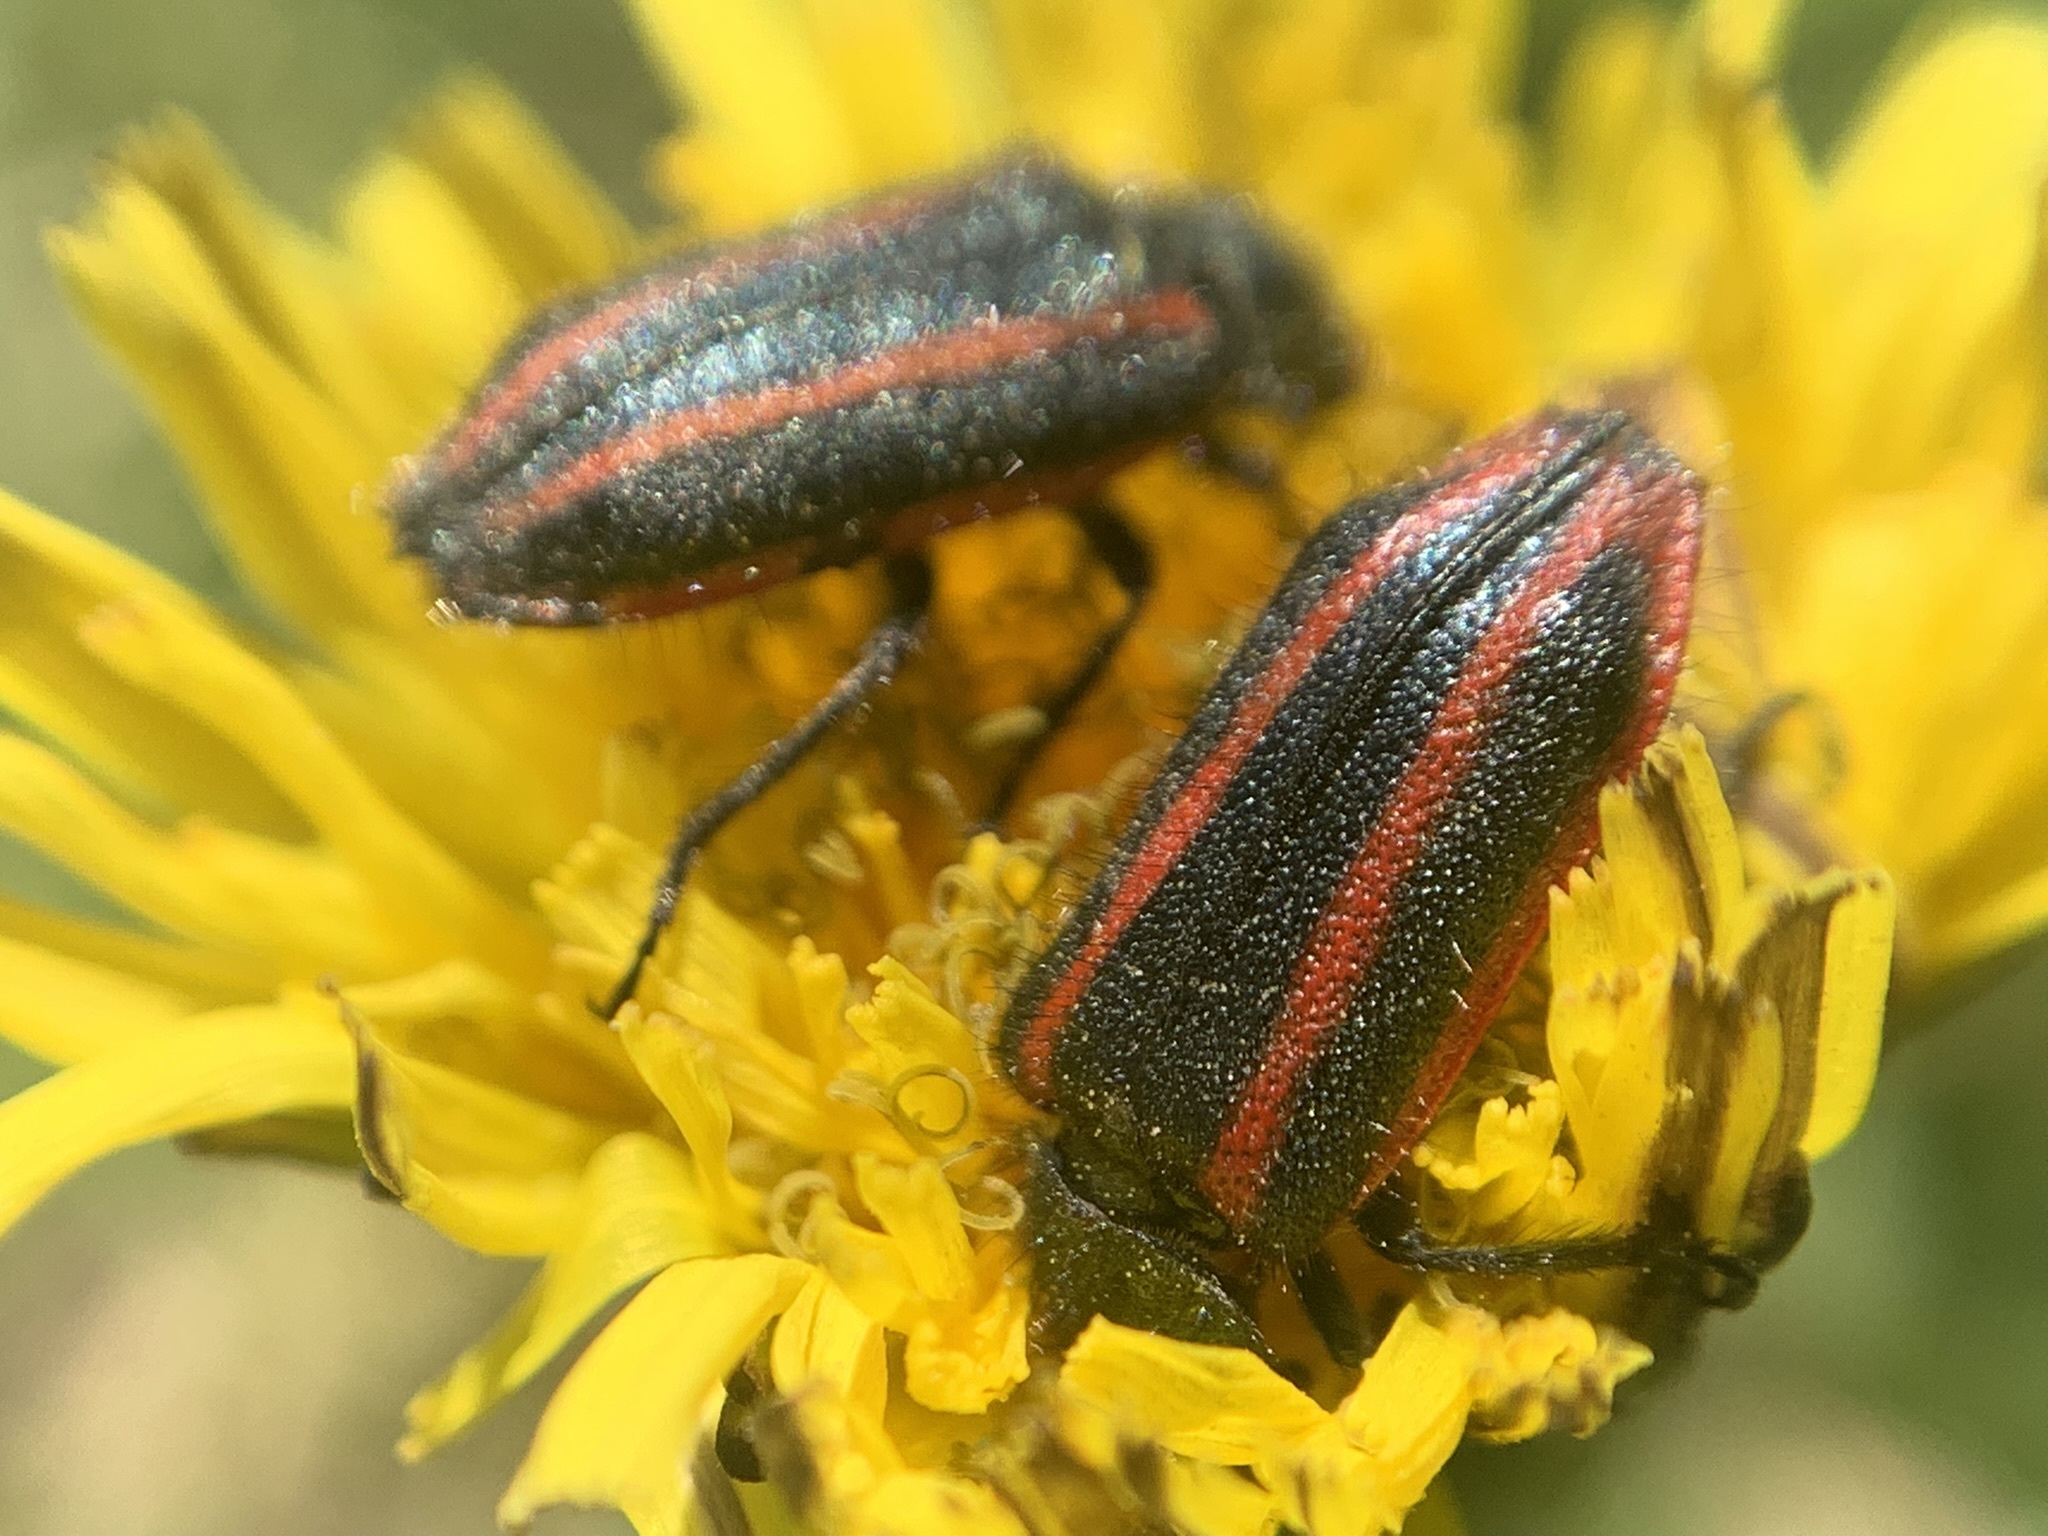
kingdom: Animalia
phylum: Arthropoda
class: Insecta
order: Coleoptera
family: Melyridae
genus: Astylus
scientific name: Astylus
